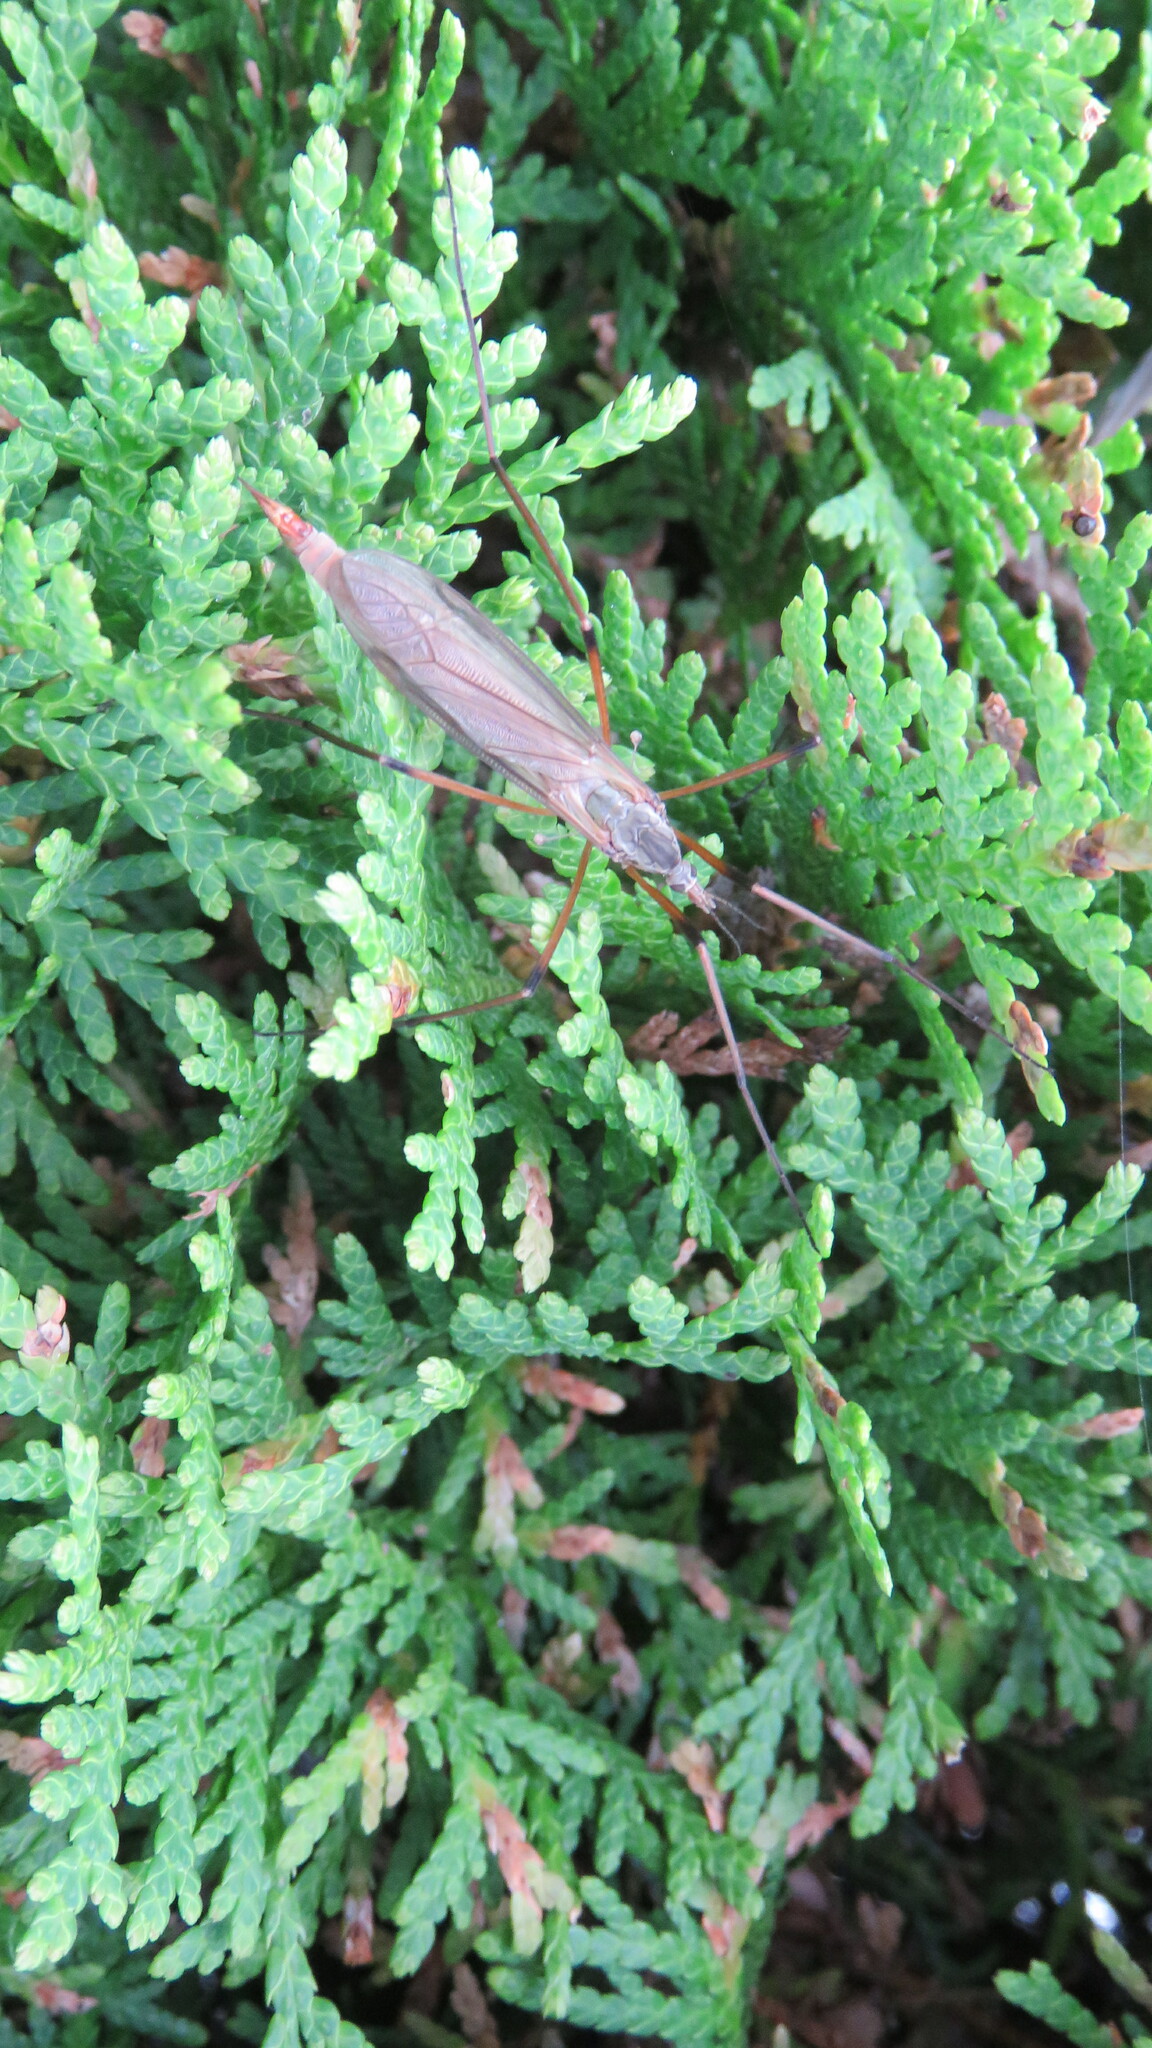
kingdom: Animalia
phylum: Arthropoda
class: Insecta
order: Diptera
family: Tipulidae
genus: Tipula
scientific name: Tipula paludosa
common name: European cranefly
